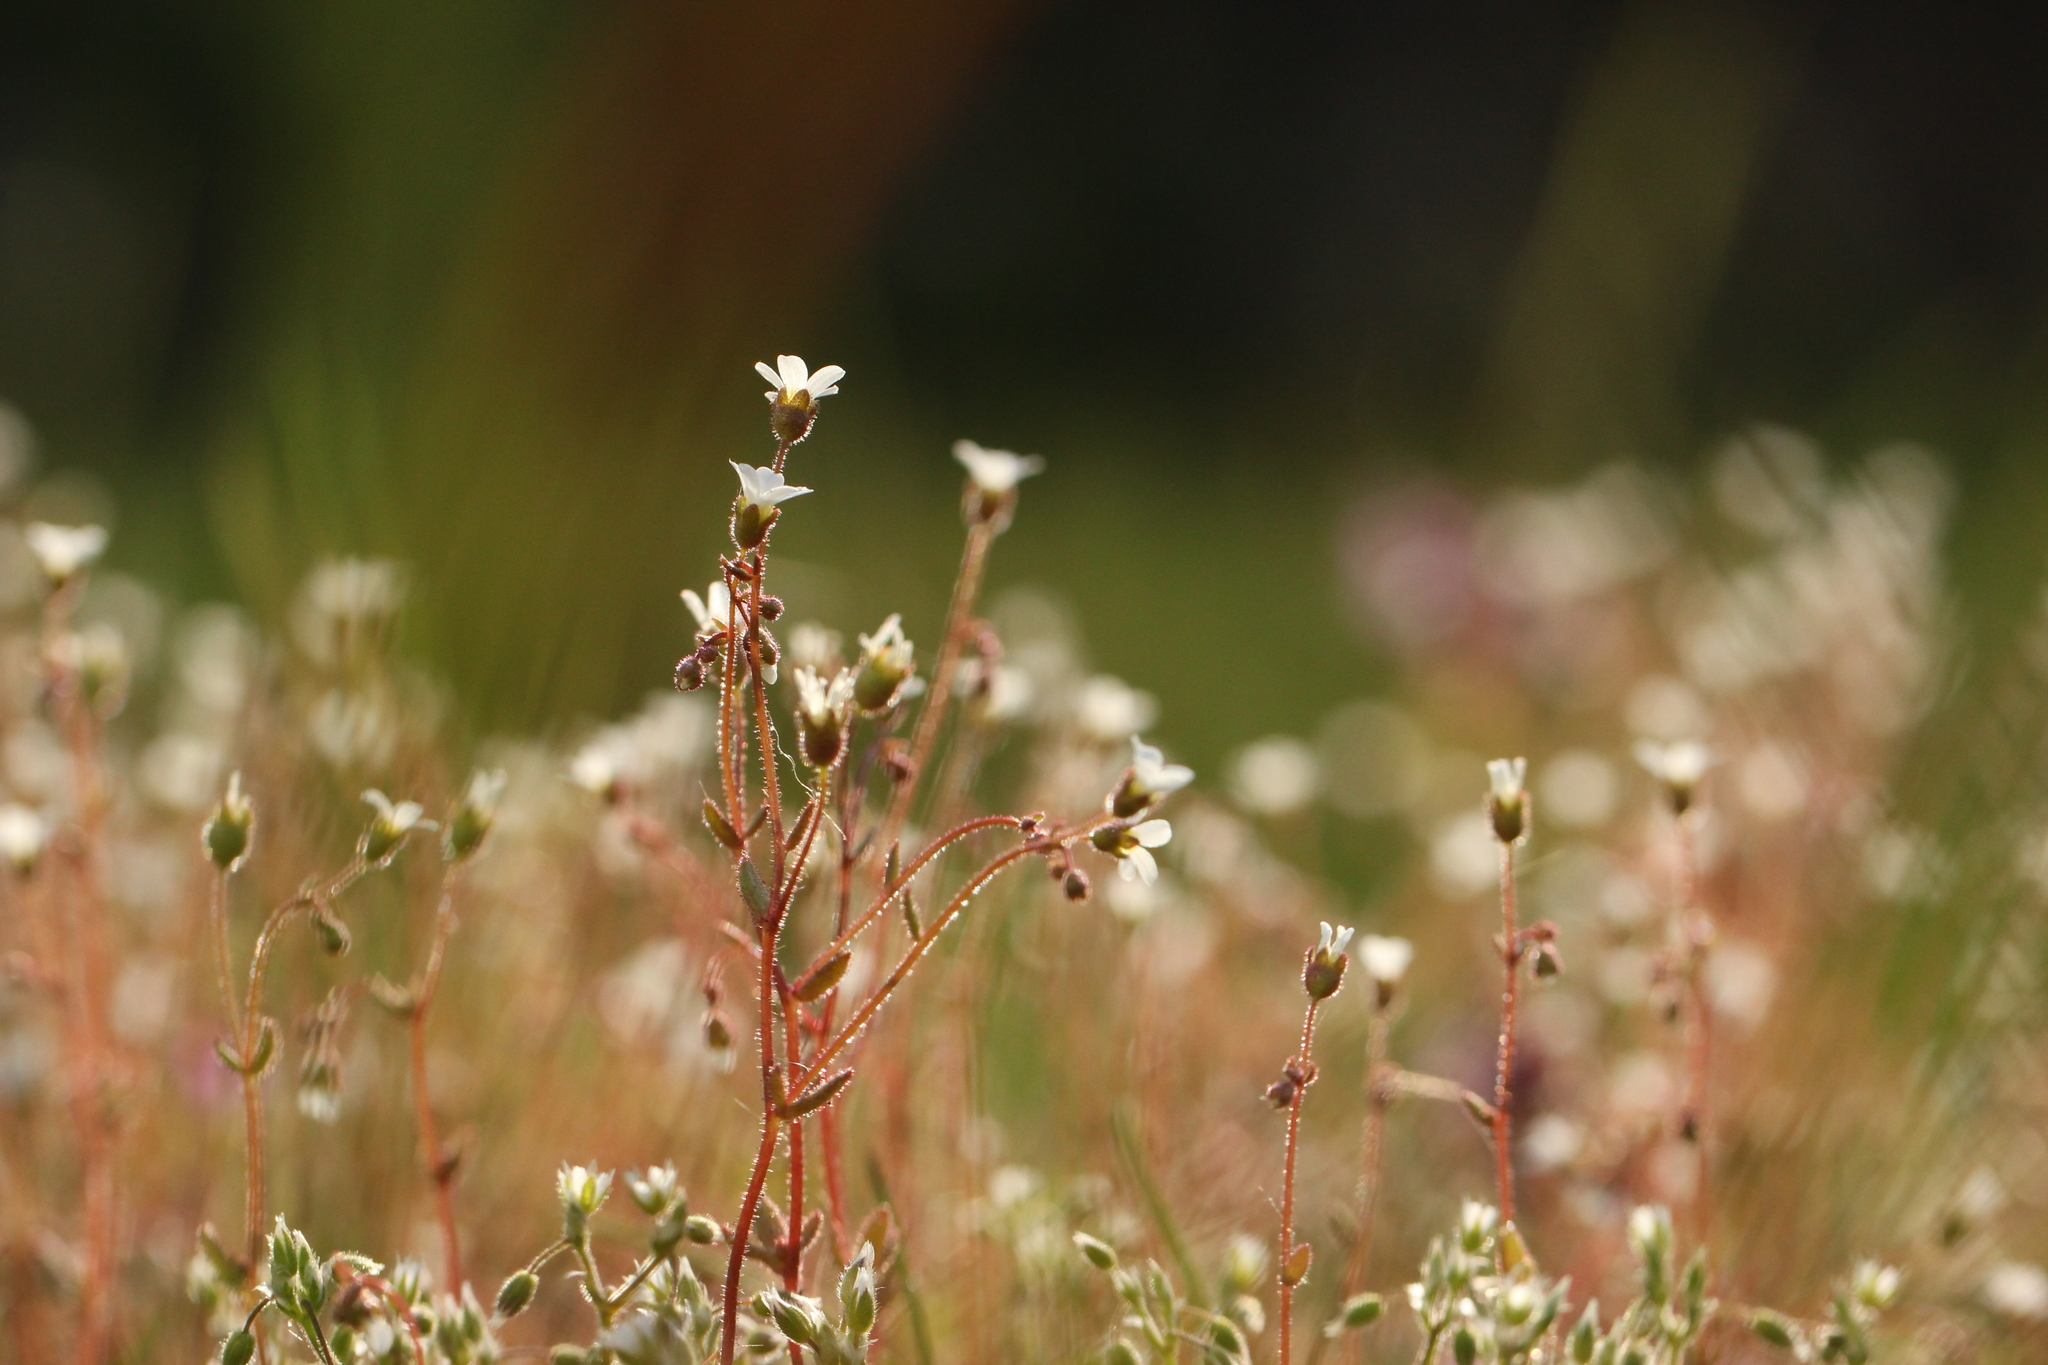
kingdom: Plantae
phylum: Tracheophyta
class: Magnoliopsida
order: Saxifragales
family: Saxifragaceae
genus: Saxifraga
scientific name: Saxifraga tridactylites
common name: Rue-leaved saxifrage
